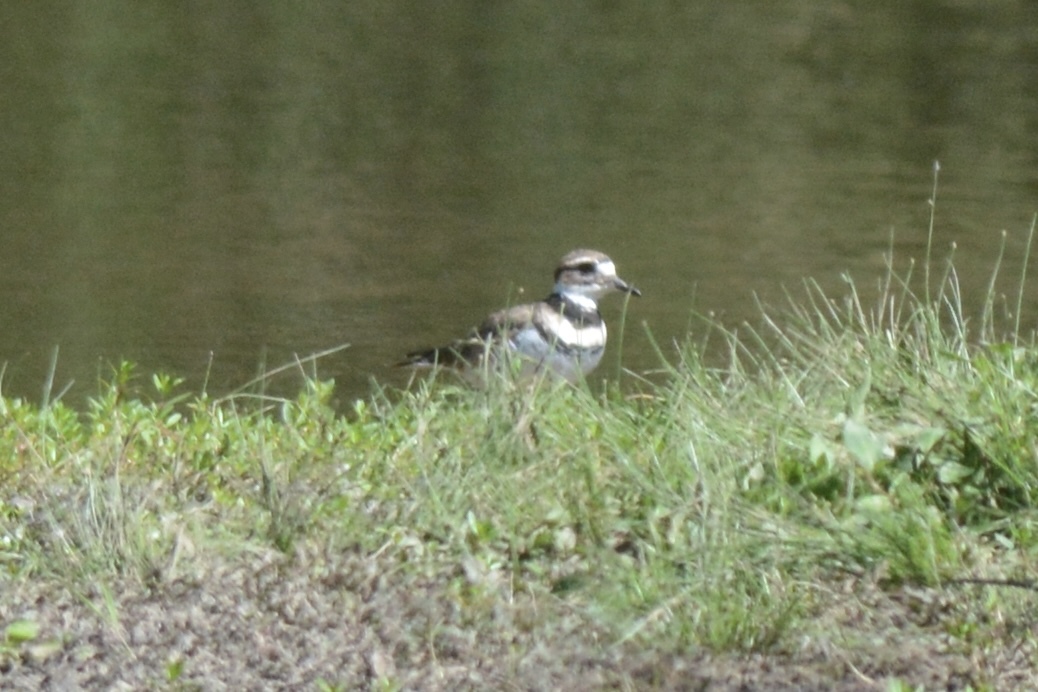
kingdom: Animalia
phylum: Chordata
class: Aves
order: Charadriiformes
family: Charadriidae
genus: Charadrius
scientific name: Charadrius vociferus
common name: Killdeer
